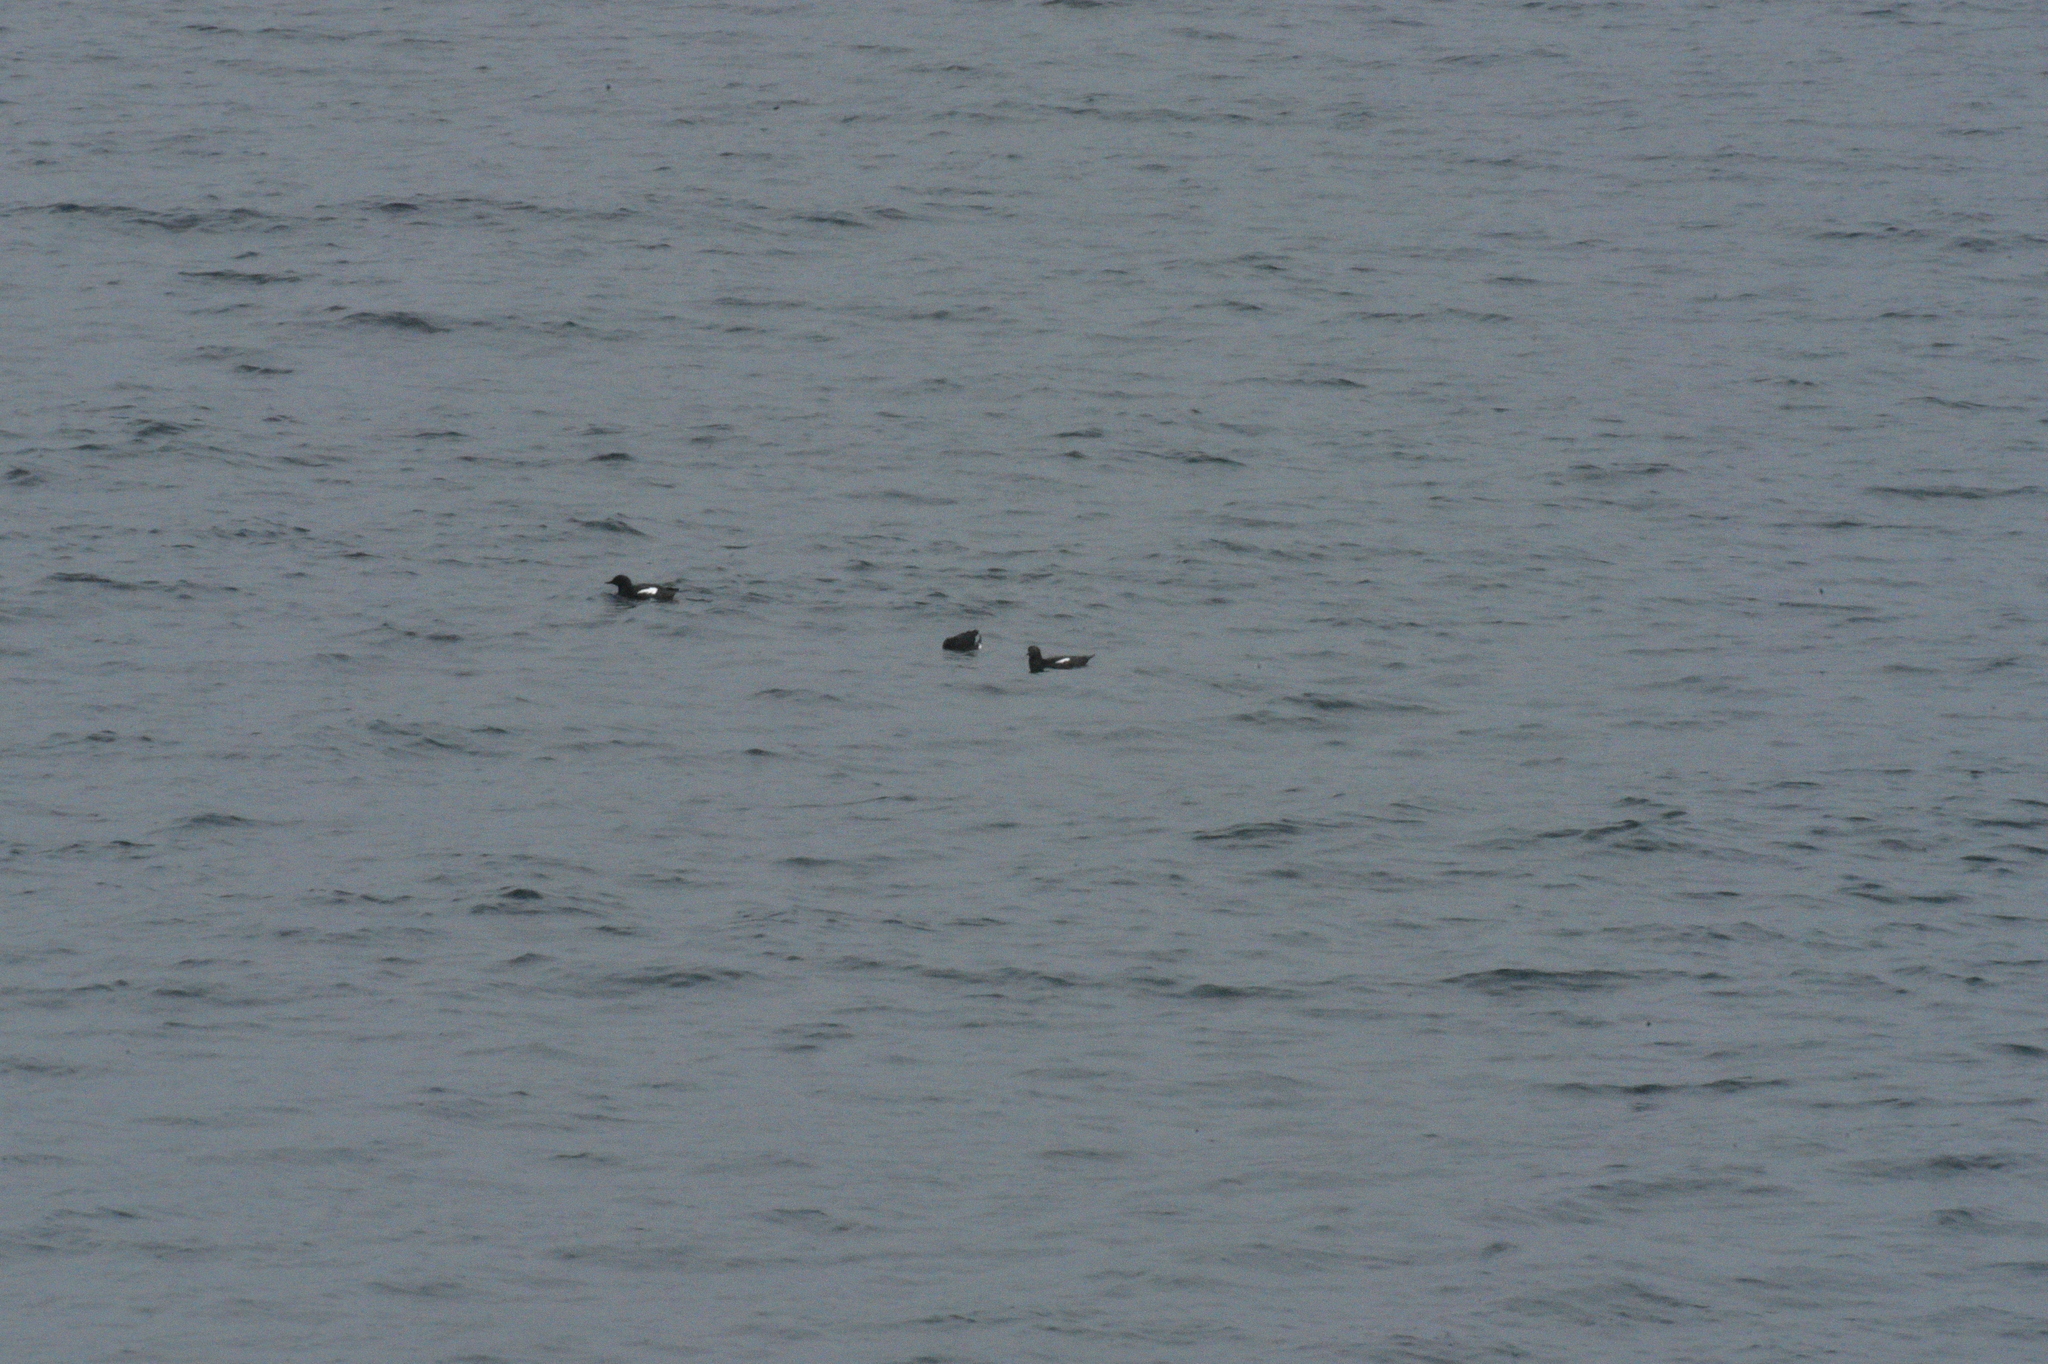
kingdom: Animalia
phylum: Chordata
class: Aves
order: Charadriiformes
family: Alcidae
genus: Cepphus
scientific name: Cepphus columba
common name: Pigeon guillemot
